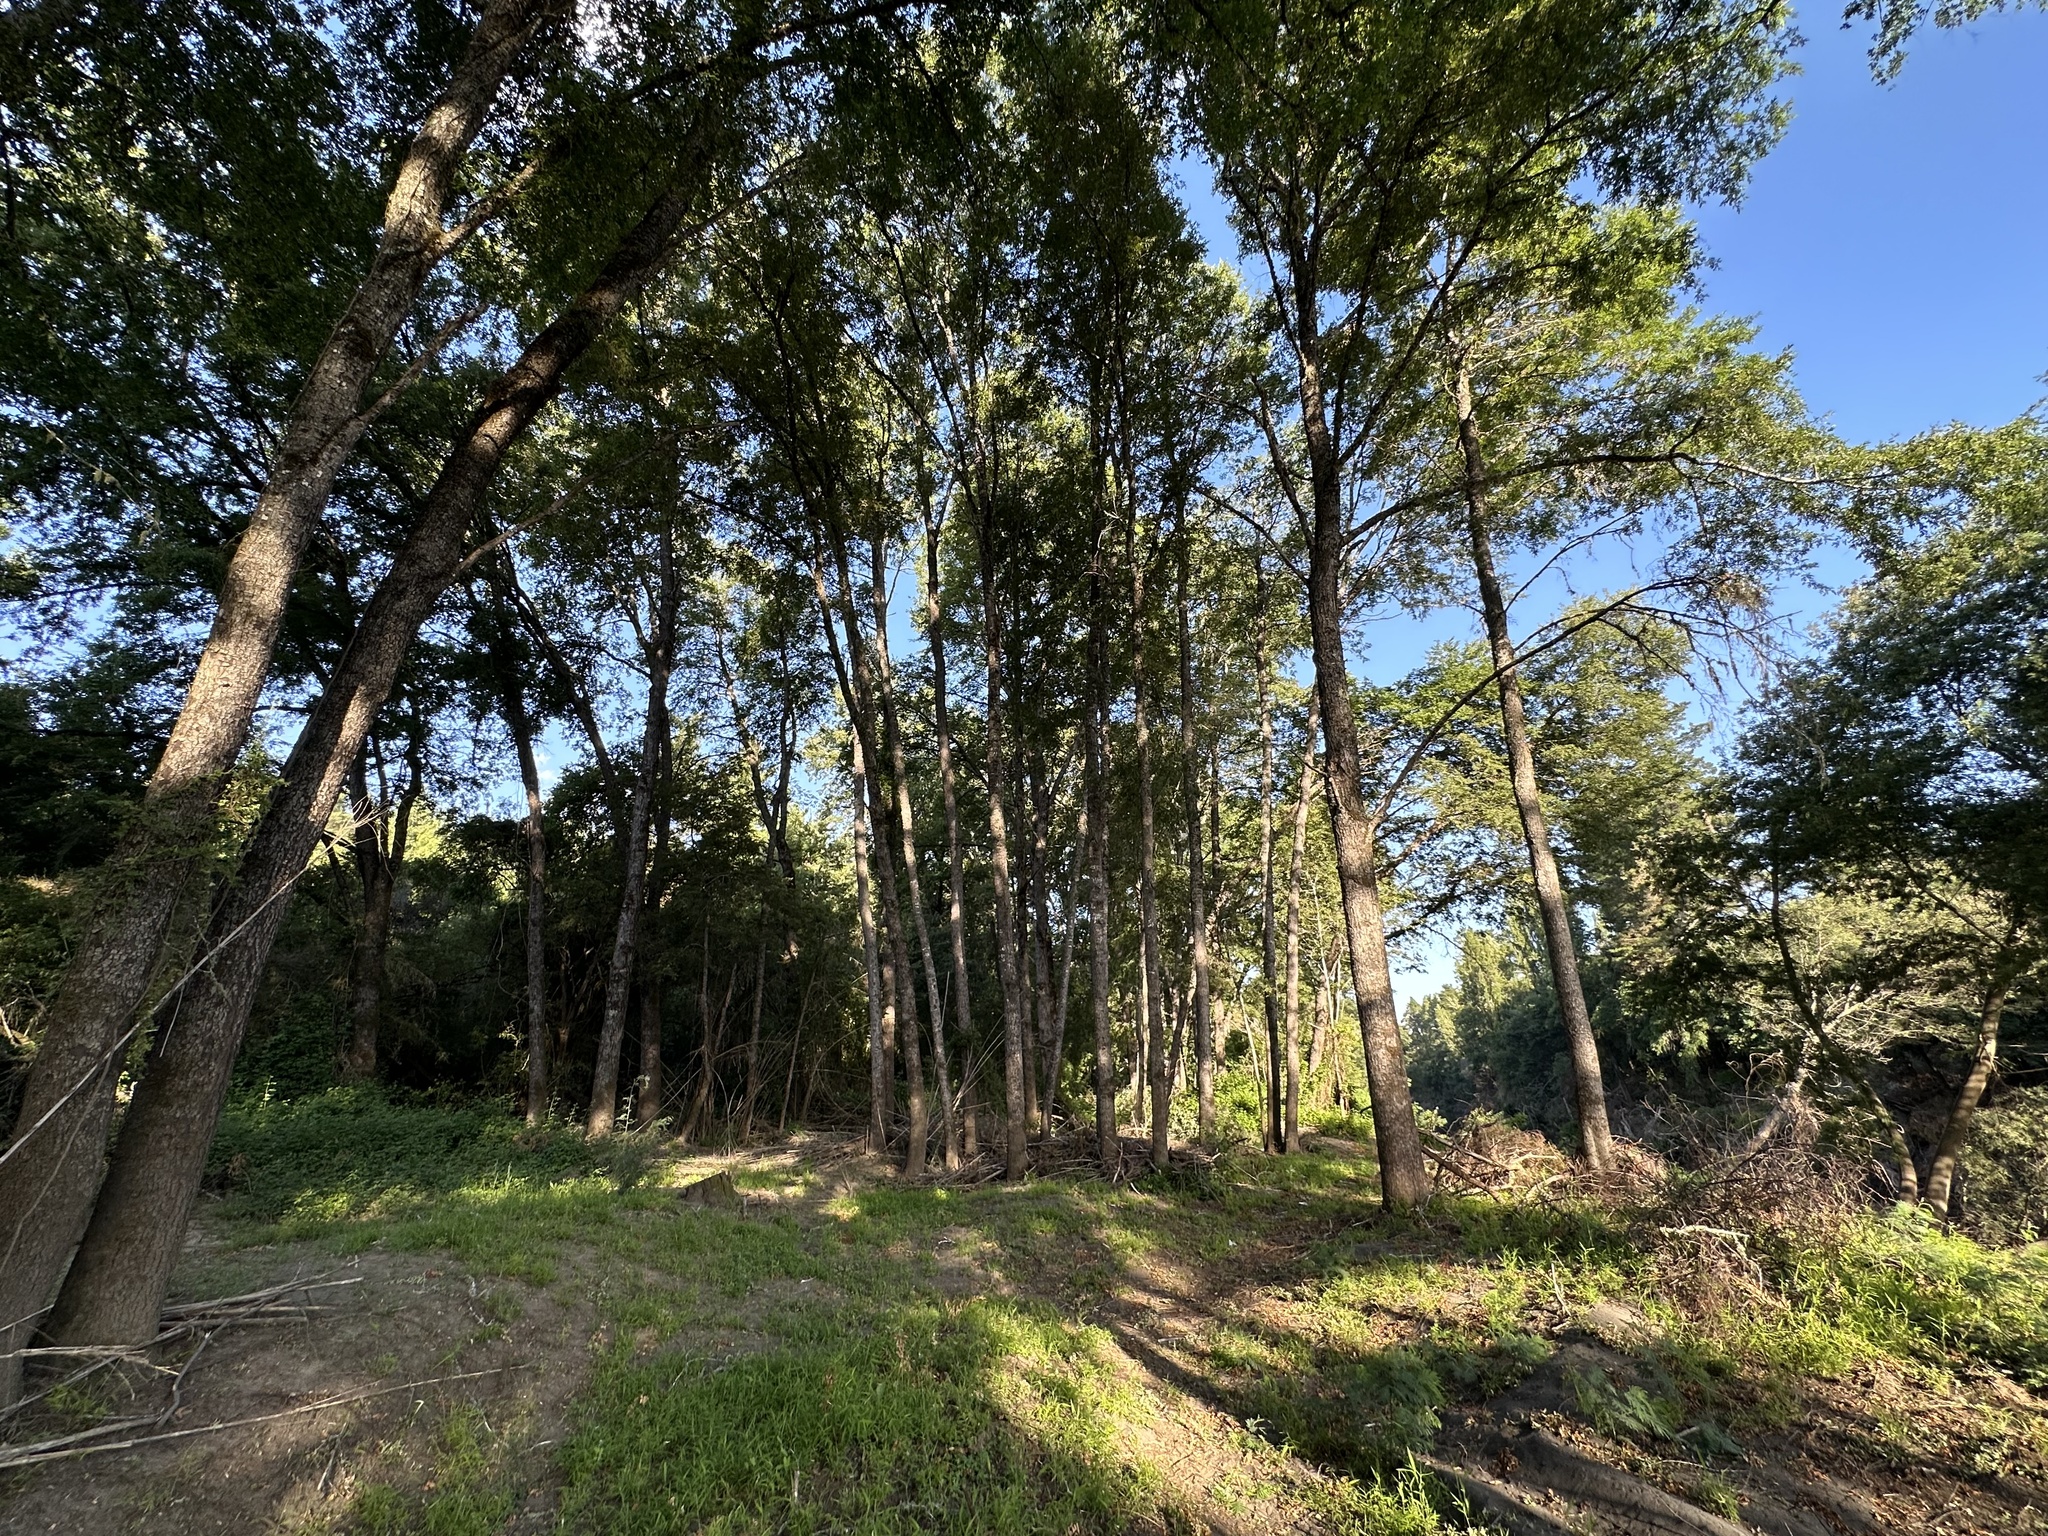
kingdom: Plantae
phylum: Tracheophyta
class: Magnoliopsida
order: Fagales
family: Nothofagaceae
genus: Nothofagus
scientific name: Nothofagus obliqua
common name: Roble beech
